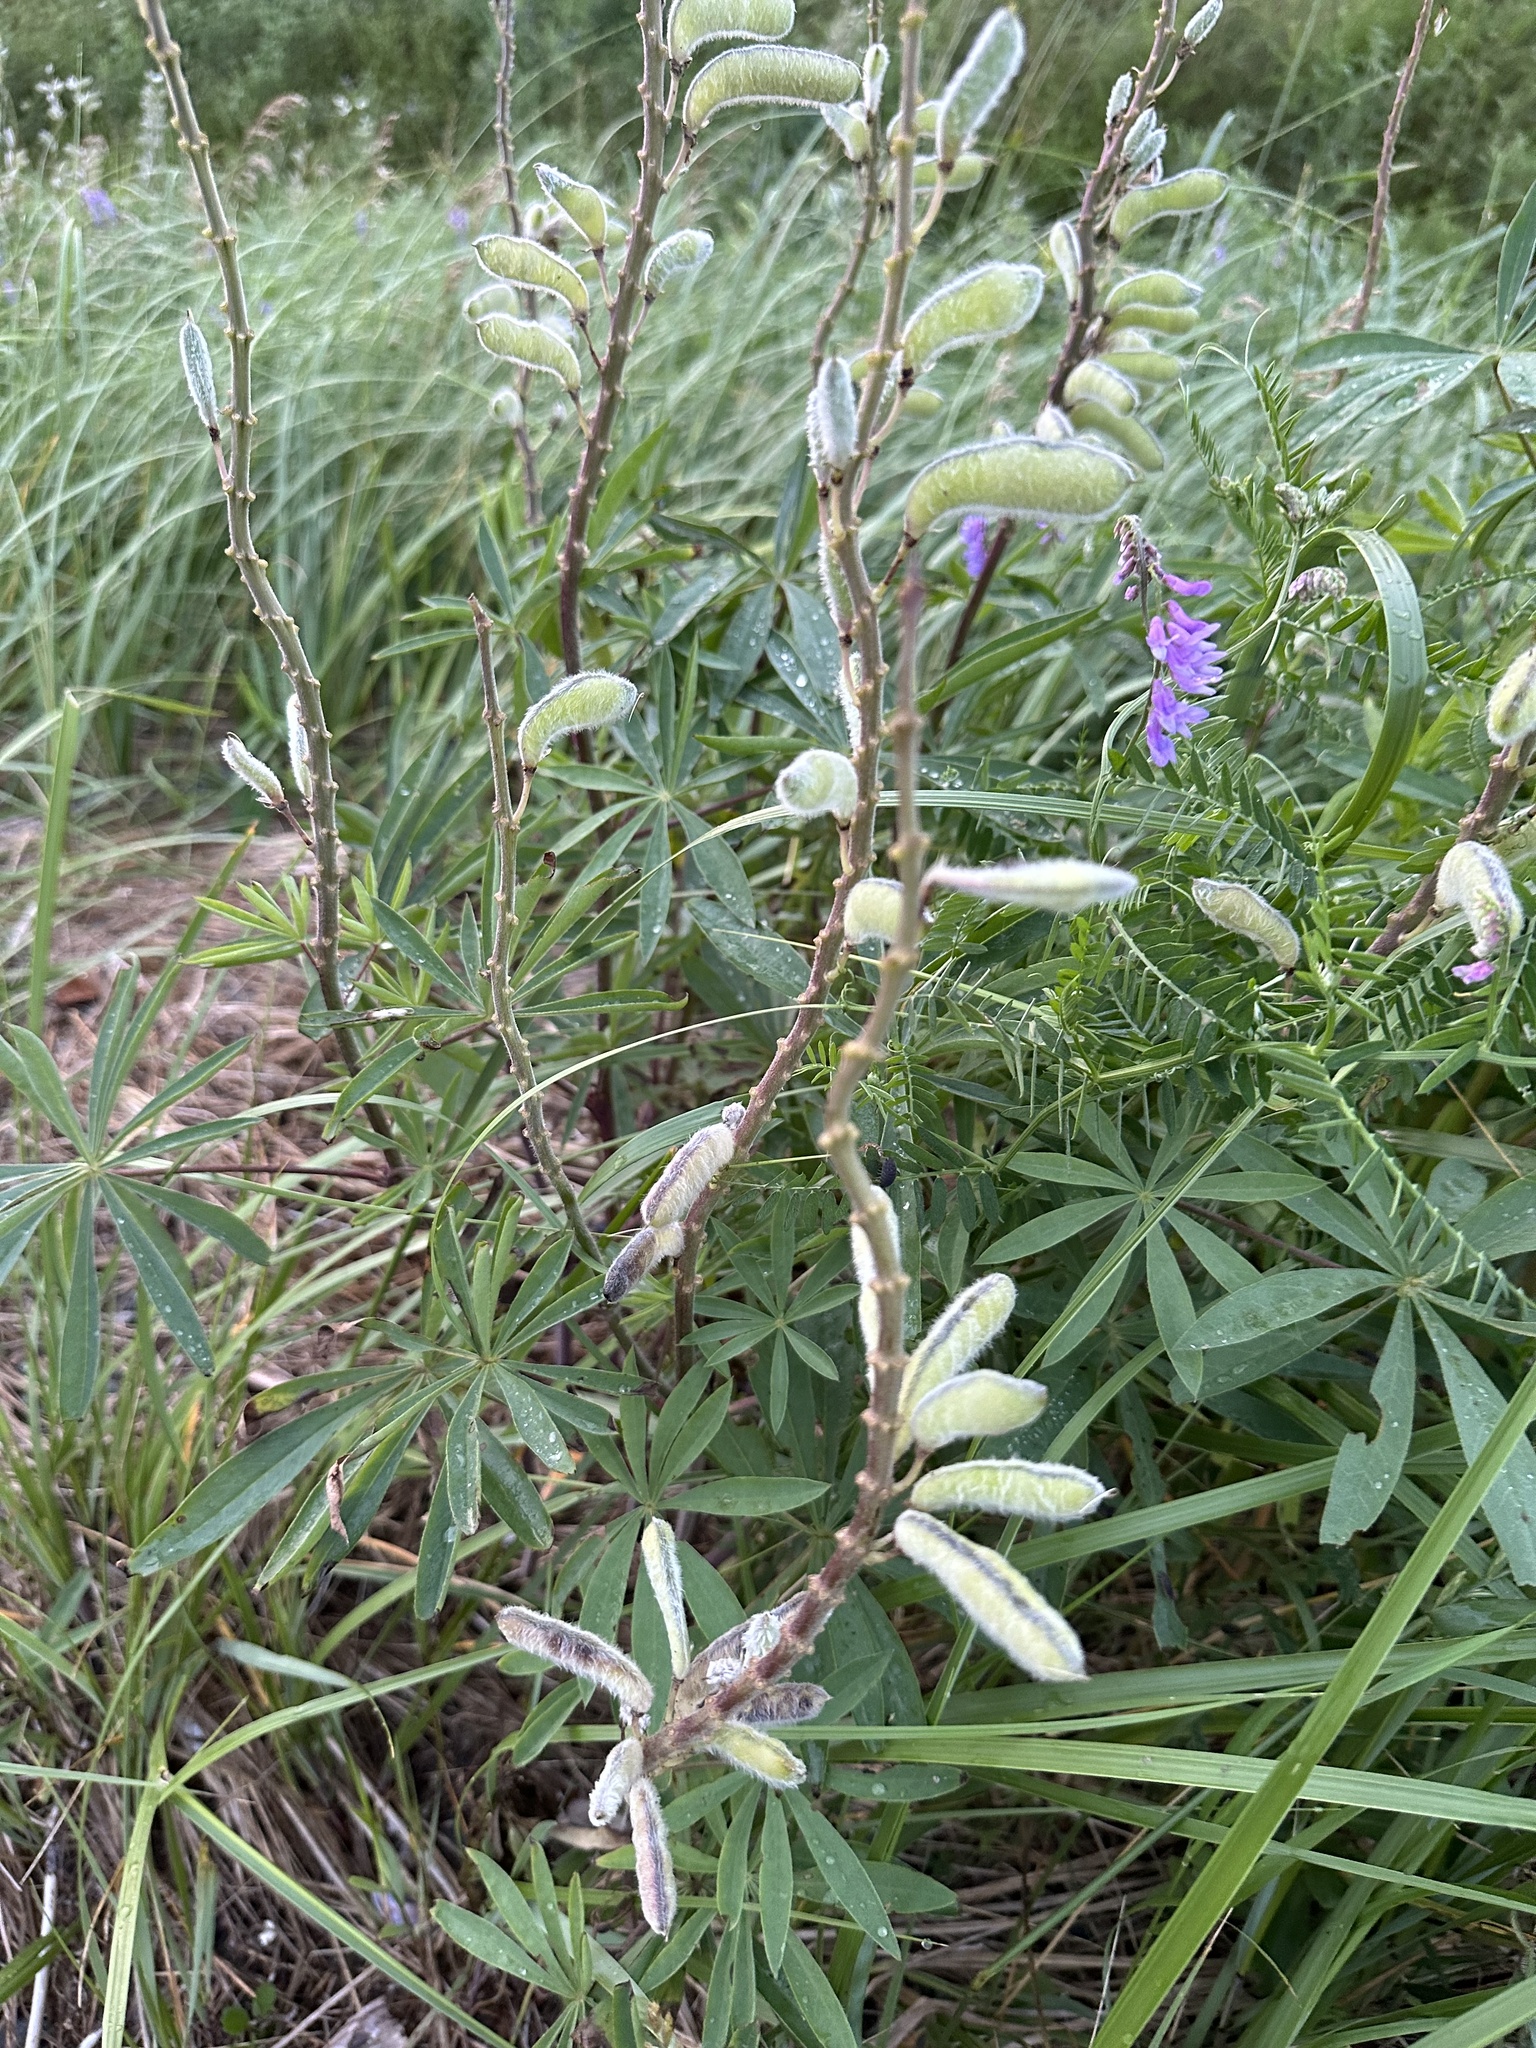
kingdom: Plantae
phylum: Tracheophyta
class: Magnoliopsida
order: Fabales
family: Fabaceae
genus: Lupinus
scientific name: Lupinus polyphyllus
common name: Garden lupin
